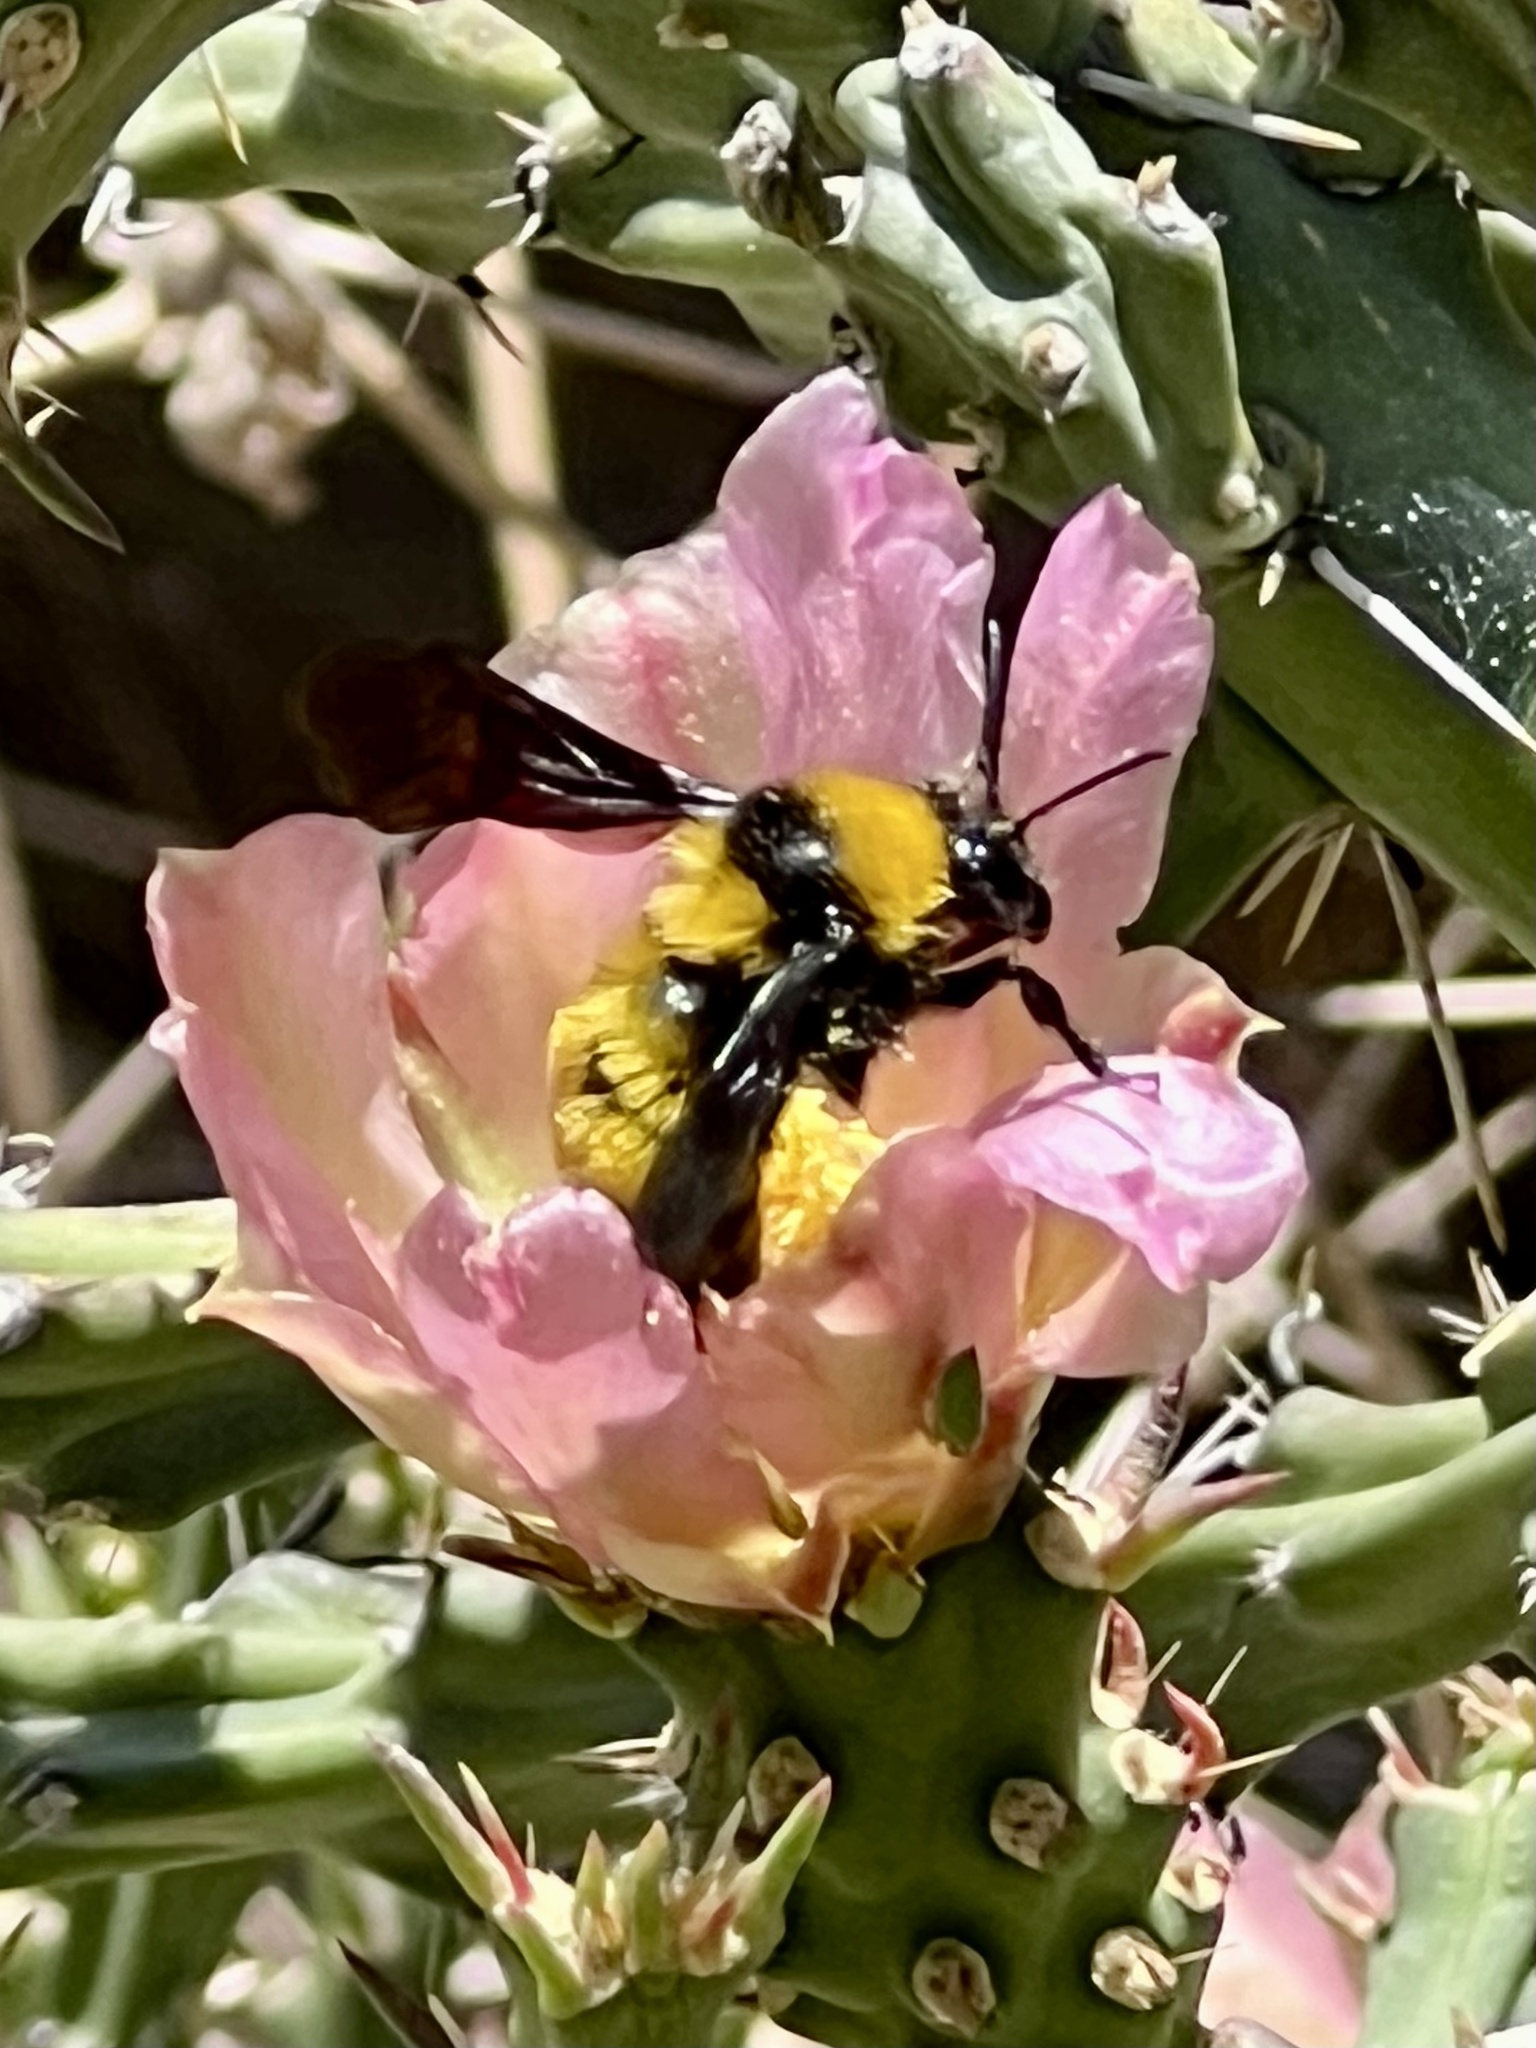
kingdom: Animalia
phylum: Arthropoda
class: Insecta
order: Hymenoptera
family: Apidae
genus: Bombus
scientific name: Bombus sonorus
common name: Sonoran bumble bee
